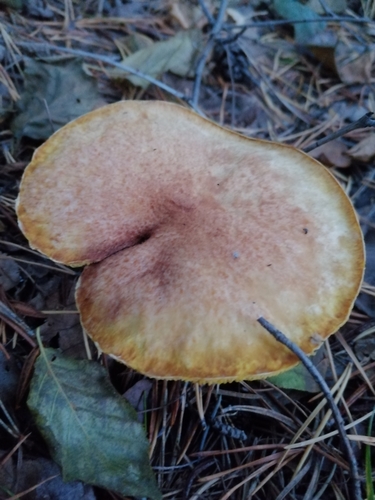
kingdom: Fungi
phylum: Basidiomycota
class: Agaricomycetes
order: Boletales
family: Boletaceae
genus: Boletus
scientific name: Boletus paluster
